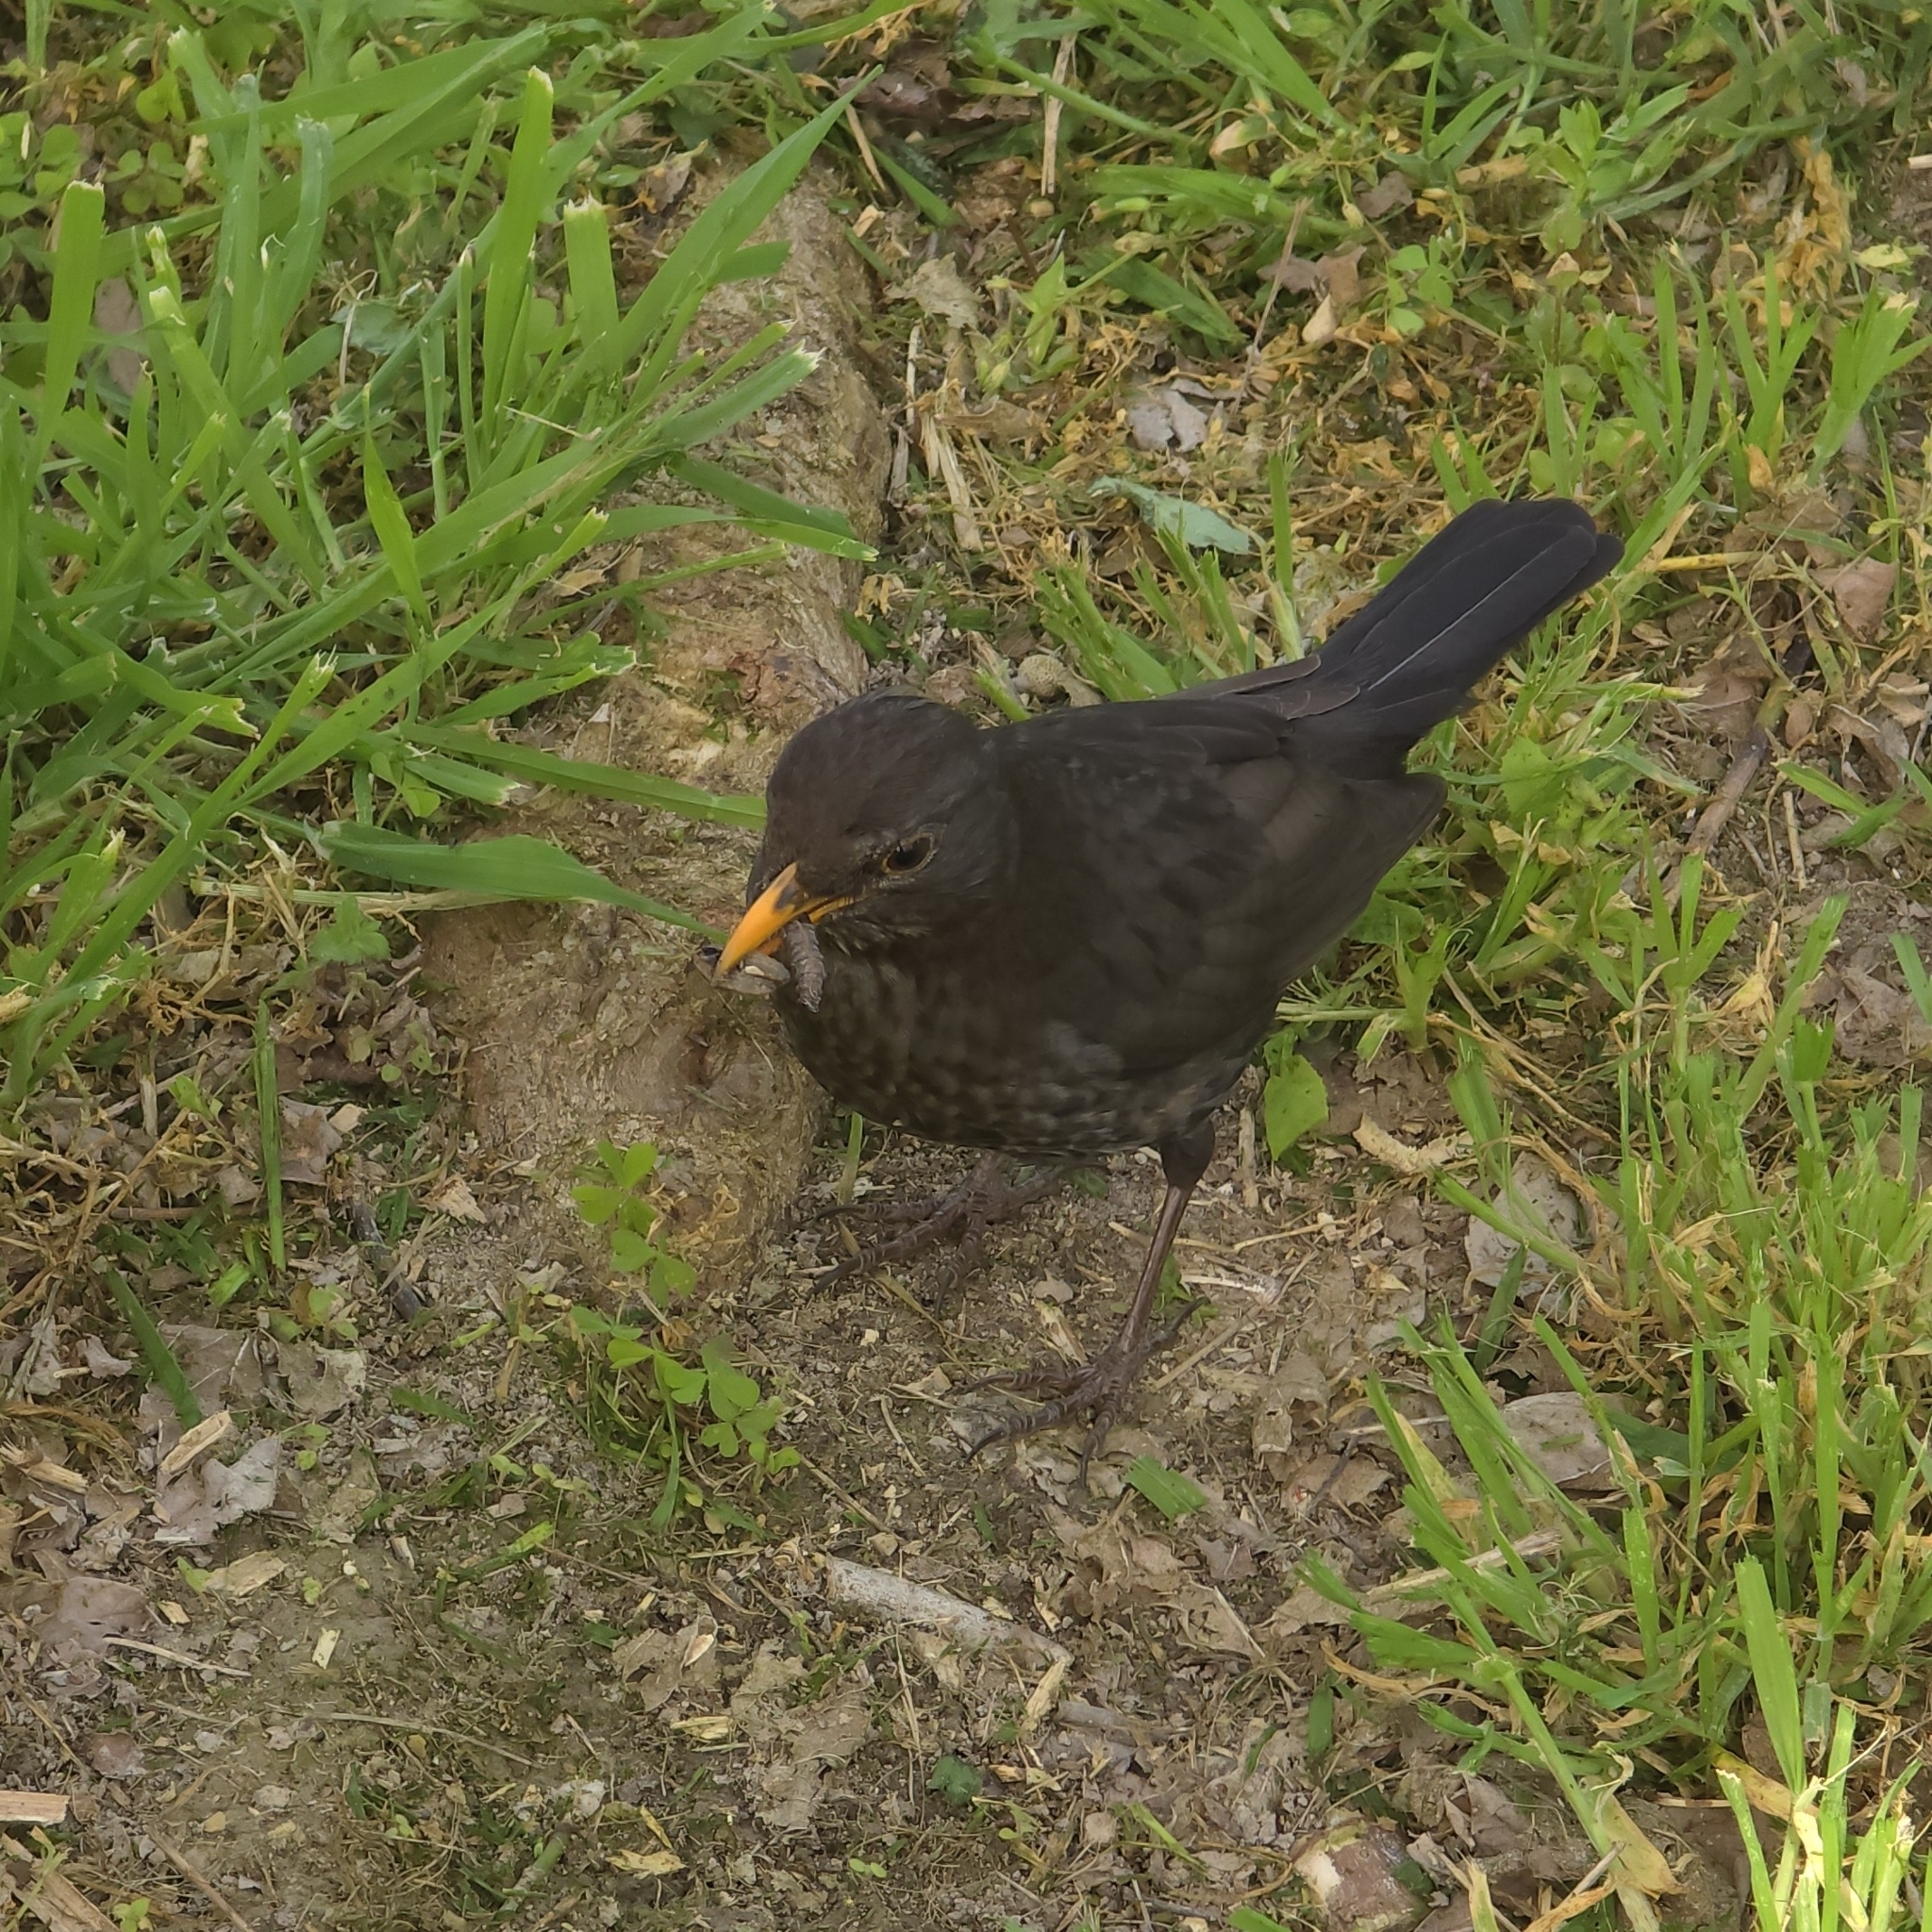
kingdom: Animalia
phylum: Chordata
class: Aves
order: Passeriformes
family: Turdidae
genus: Turdus
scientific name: Turdus merula
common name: Common blackbird
